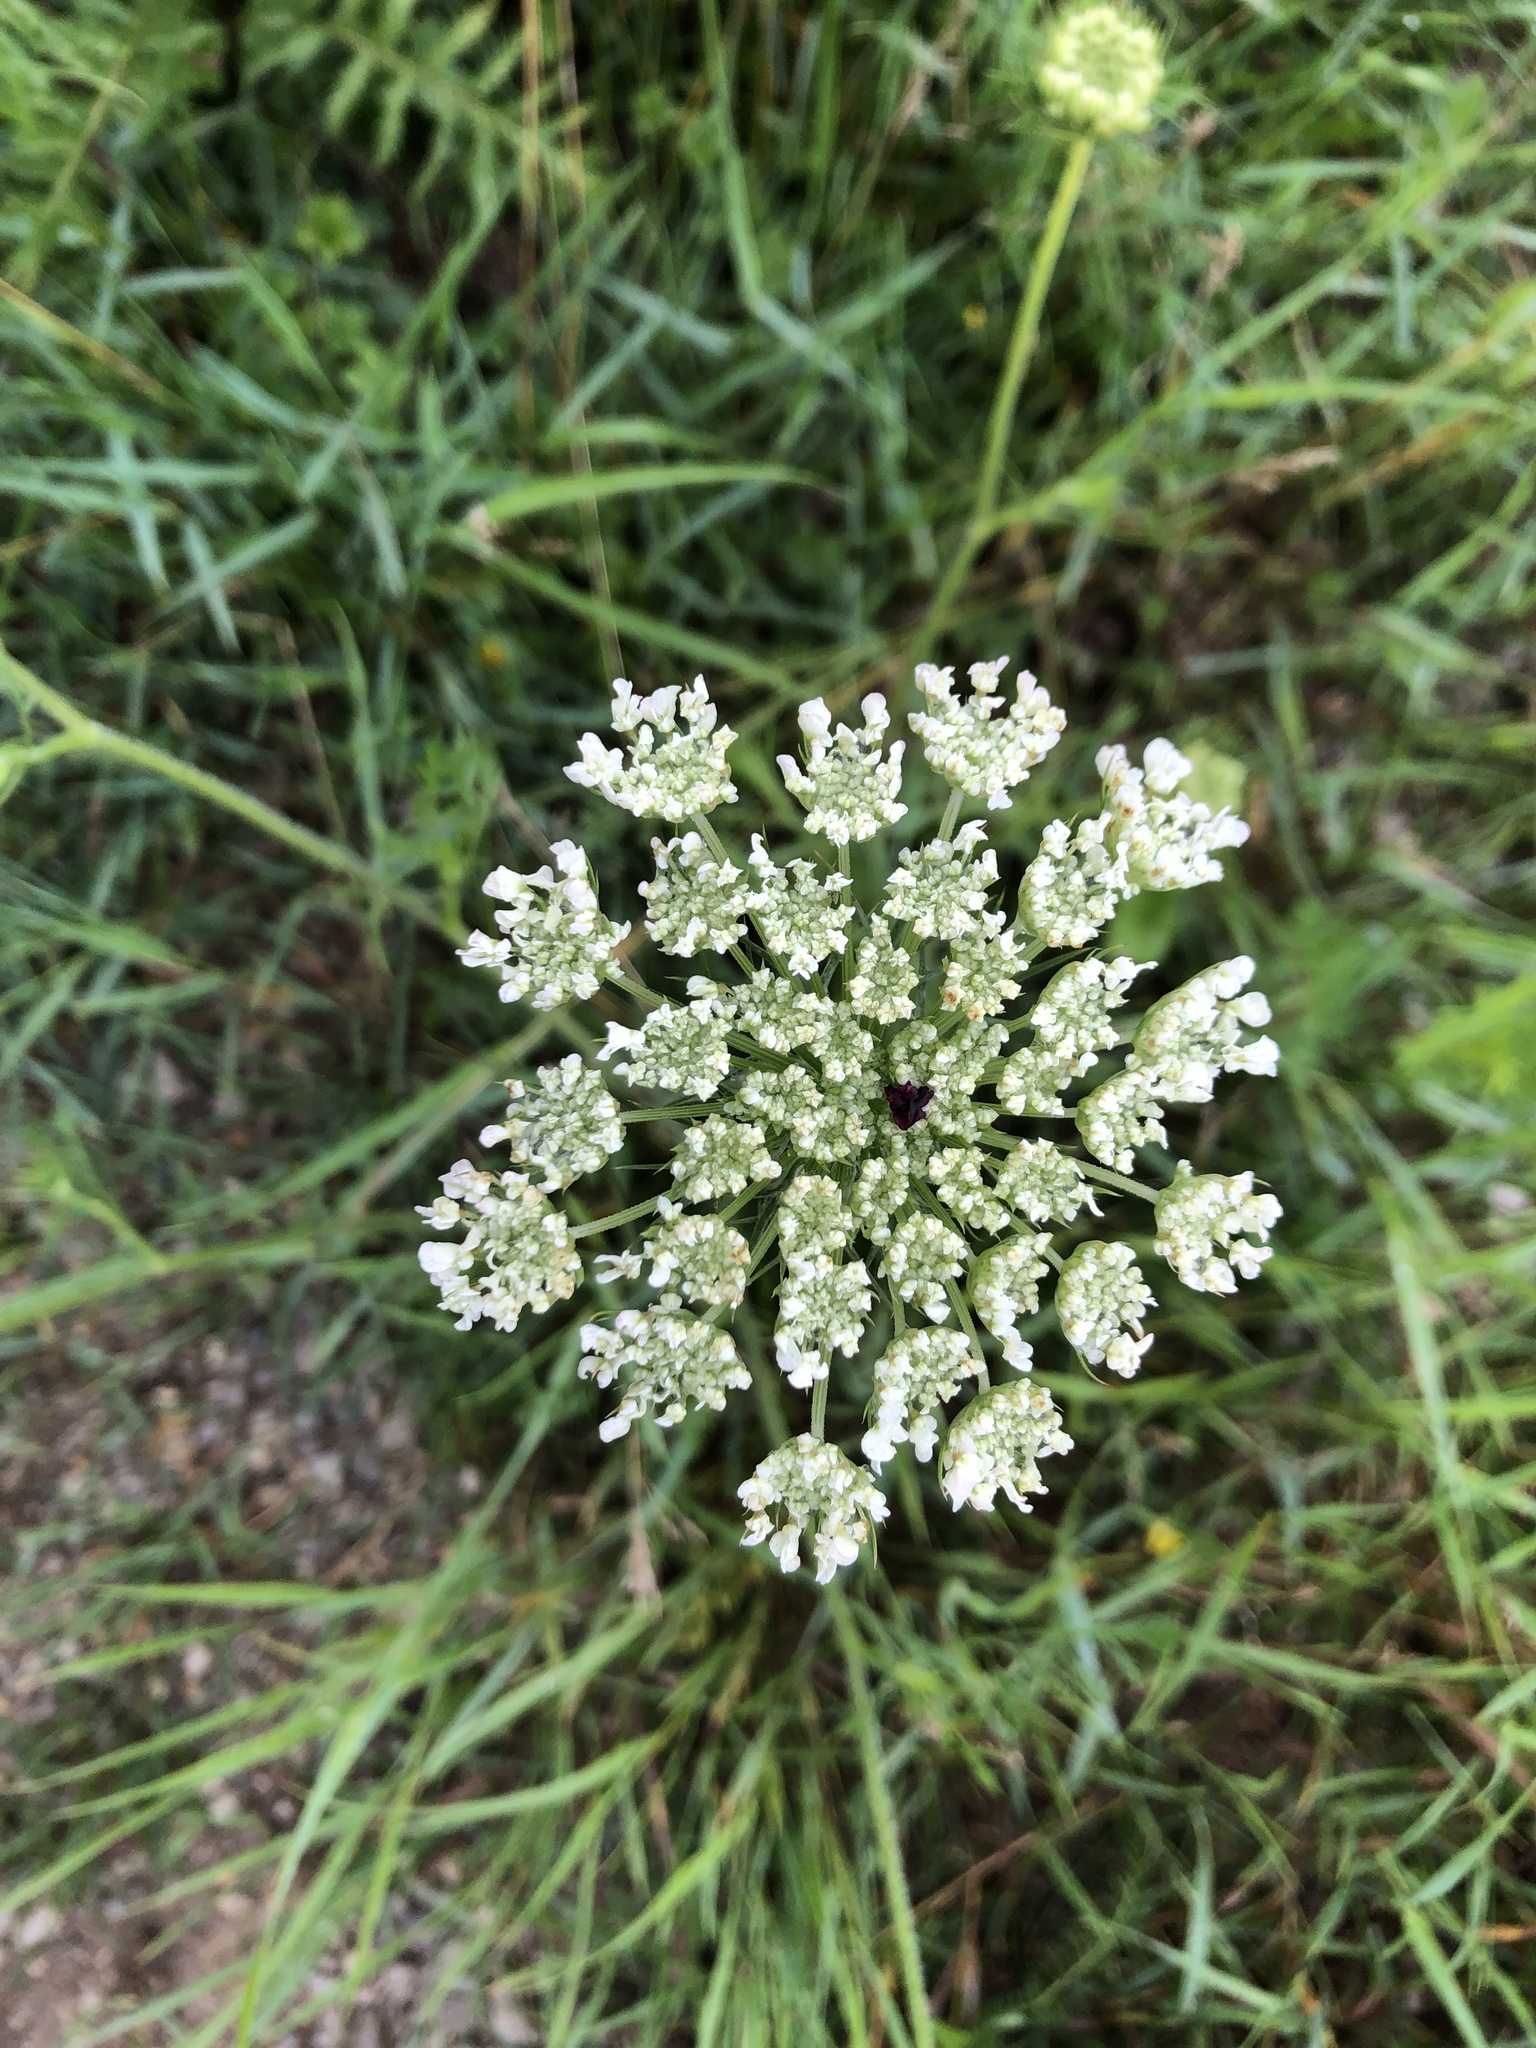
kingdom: Plantae
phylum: Tracheophyta
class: Magnoliopsida
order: Apiales
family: Apiaceae
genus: Daucus
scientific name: Daucus carota
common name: Wild carrot
